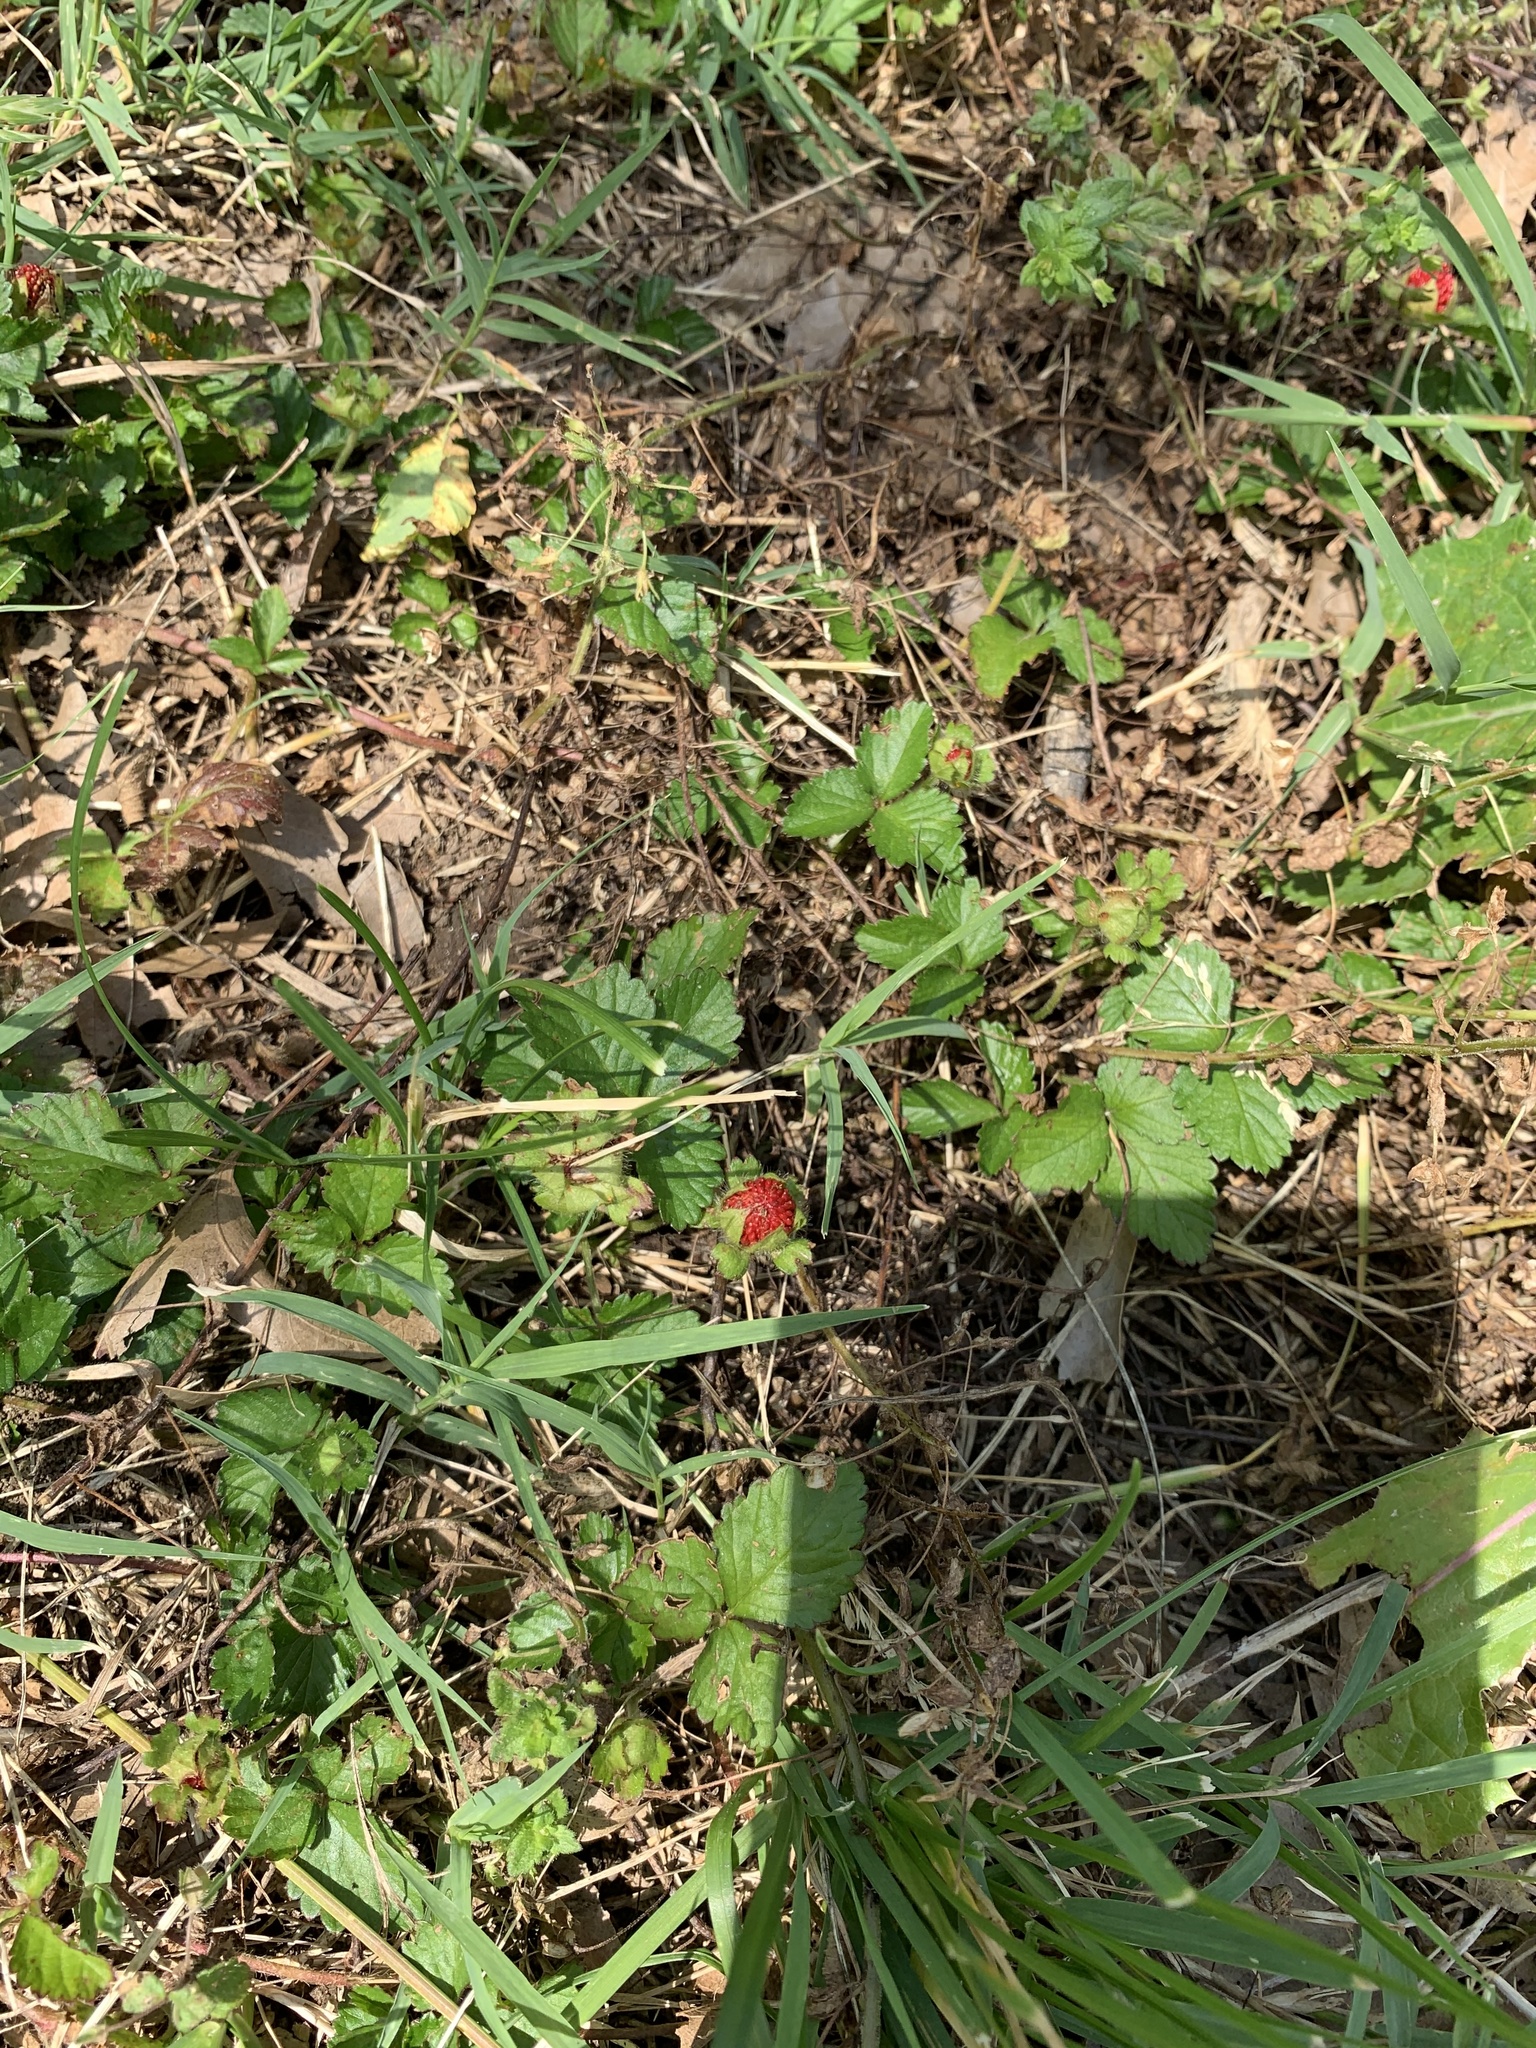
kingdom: Plantae
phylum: Tracheophyta
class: Magnoliopsida
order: Rosales
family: Rosaceae
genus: Potentilla
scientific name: Potentilla indica
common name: Yellow-flowered strawberry
